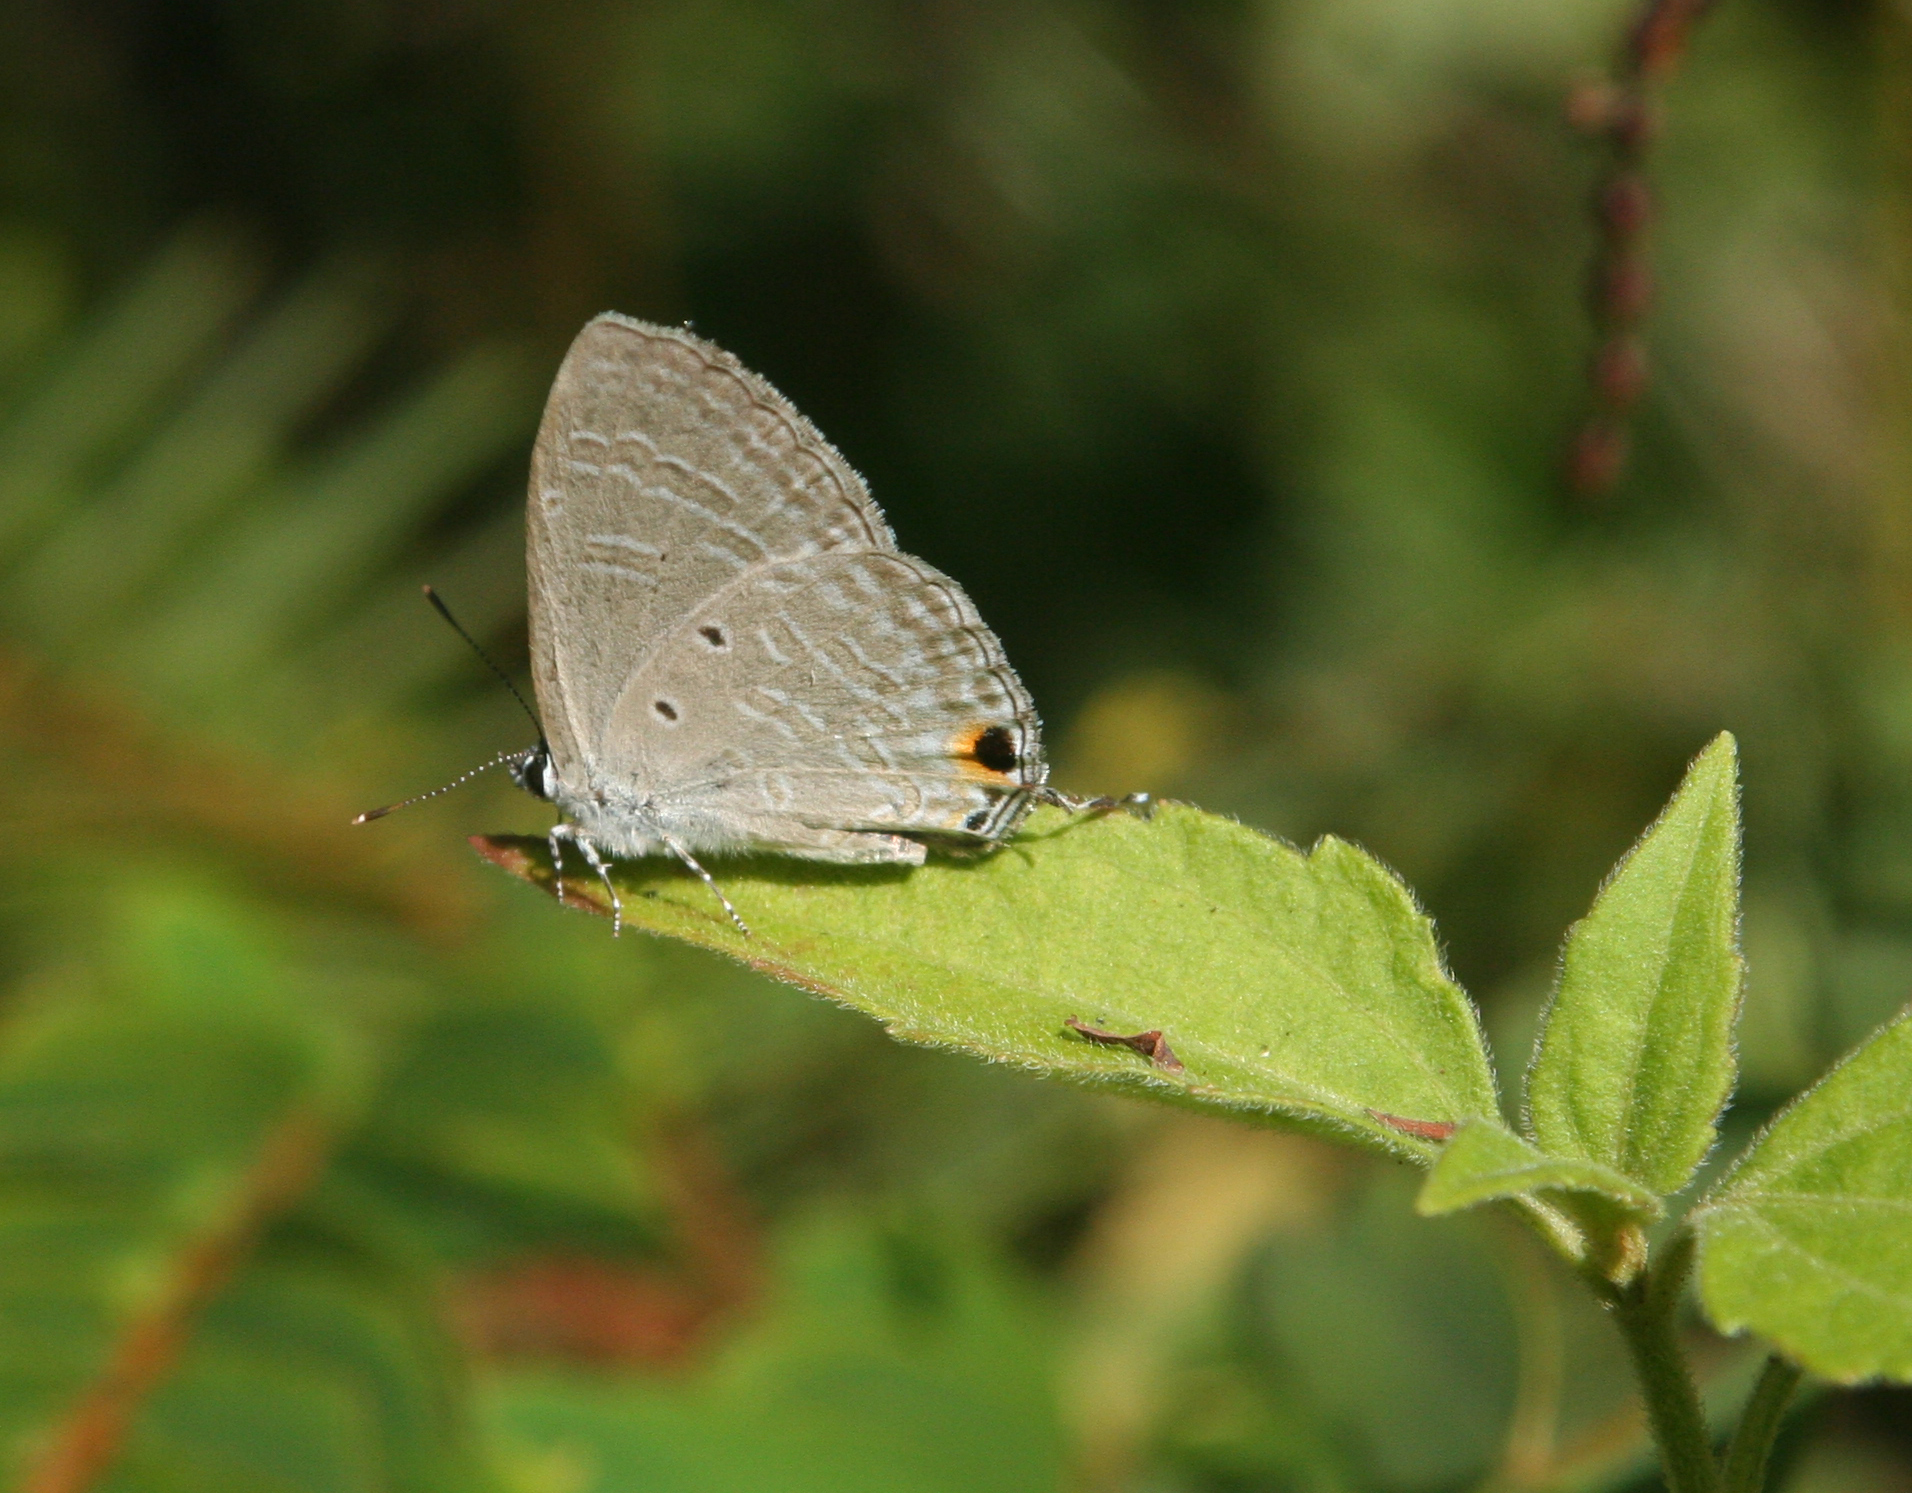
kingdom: Animalia
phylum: Arthropoda
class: Insecta
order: Lepidoptera
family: Lycaenidae
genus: Catochrysops
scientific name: Catochrysops strabo
